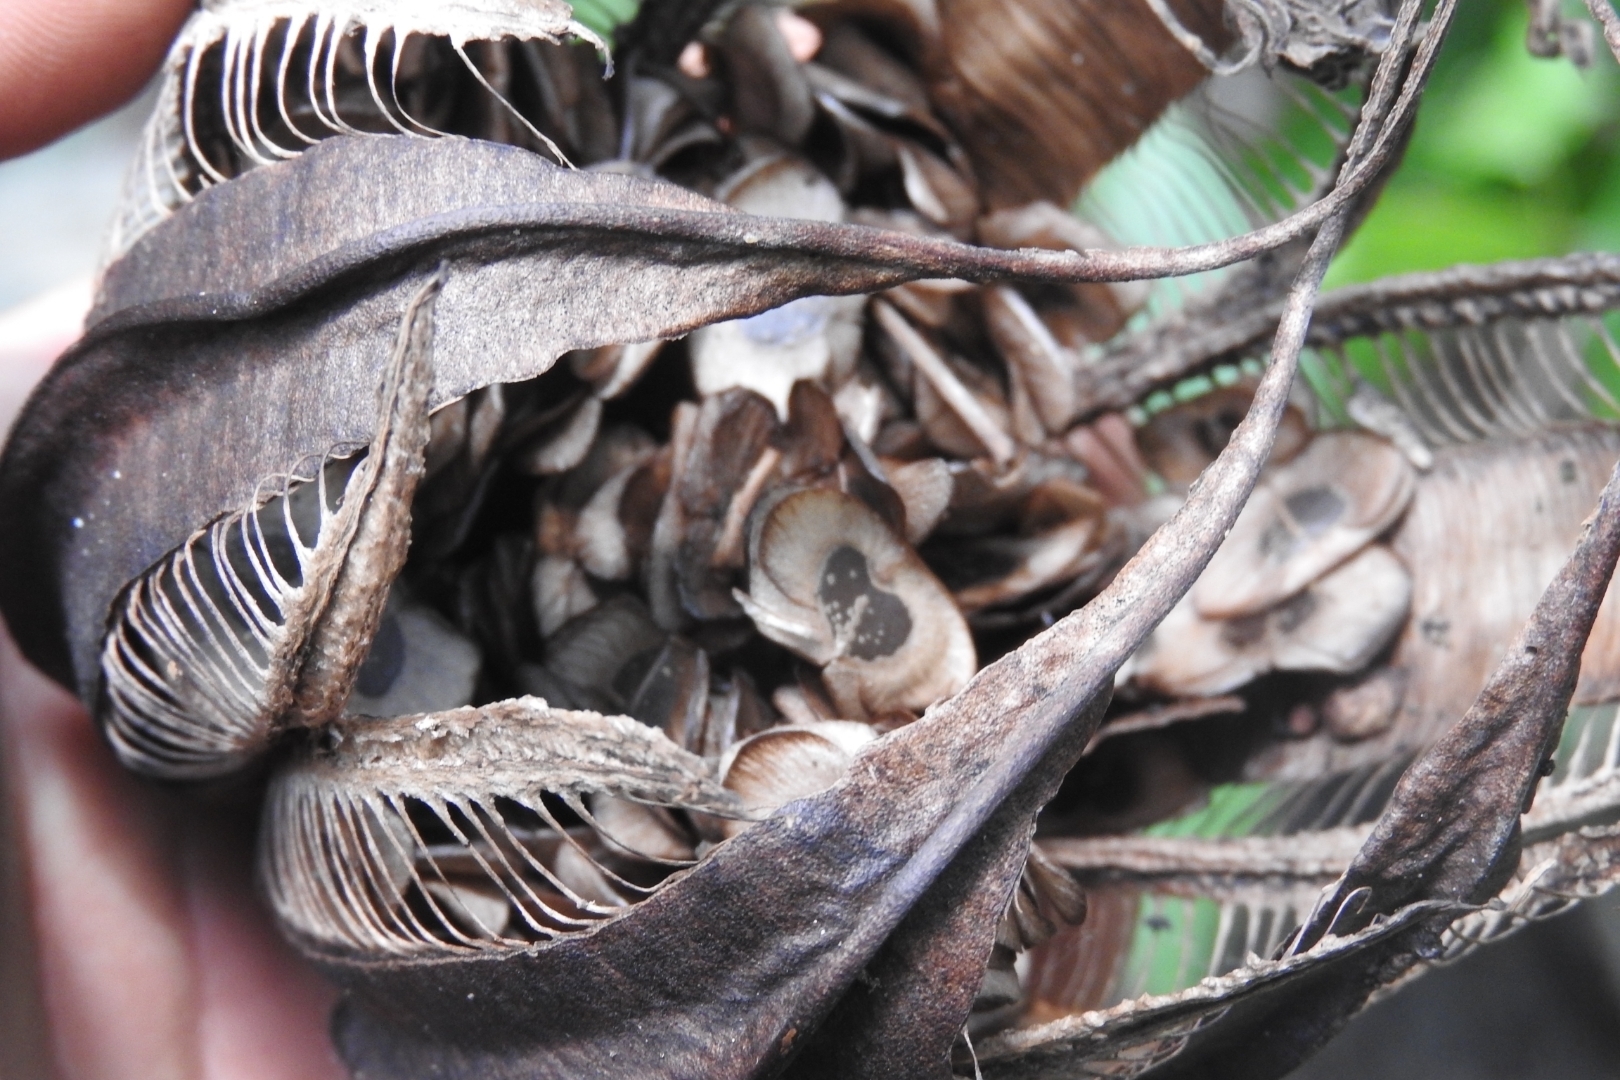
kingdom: Plantae
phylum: Tracheophyta
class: Magnoliopsida
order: Piperales
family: Aristolochiaceae
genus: Aristolochia
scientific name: Aristolochia maxima
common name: Florida dutchman's pipe
